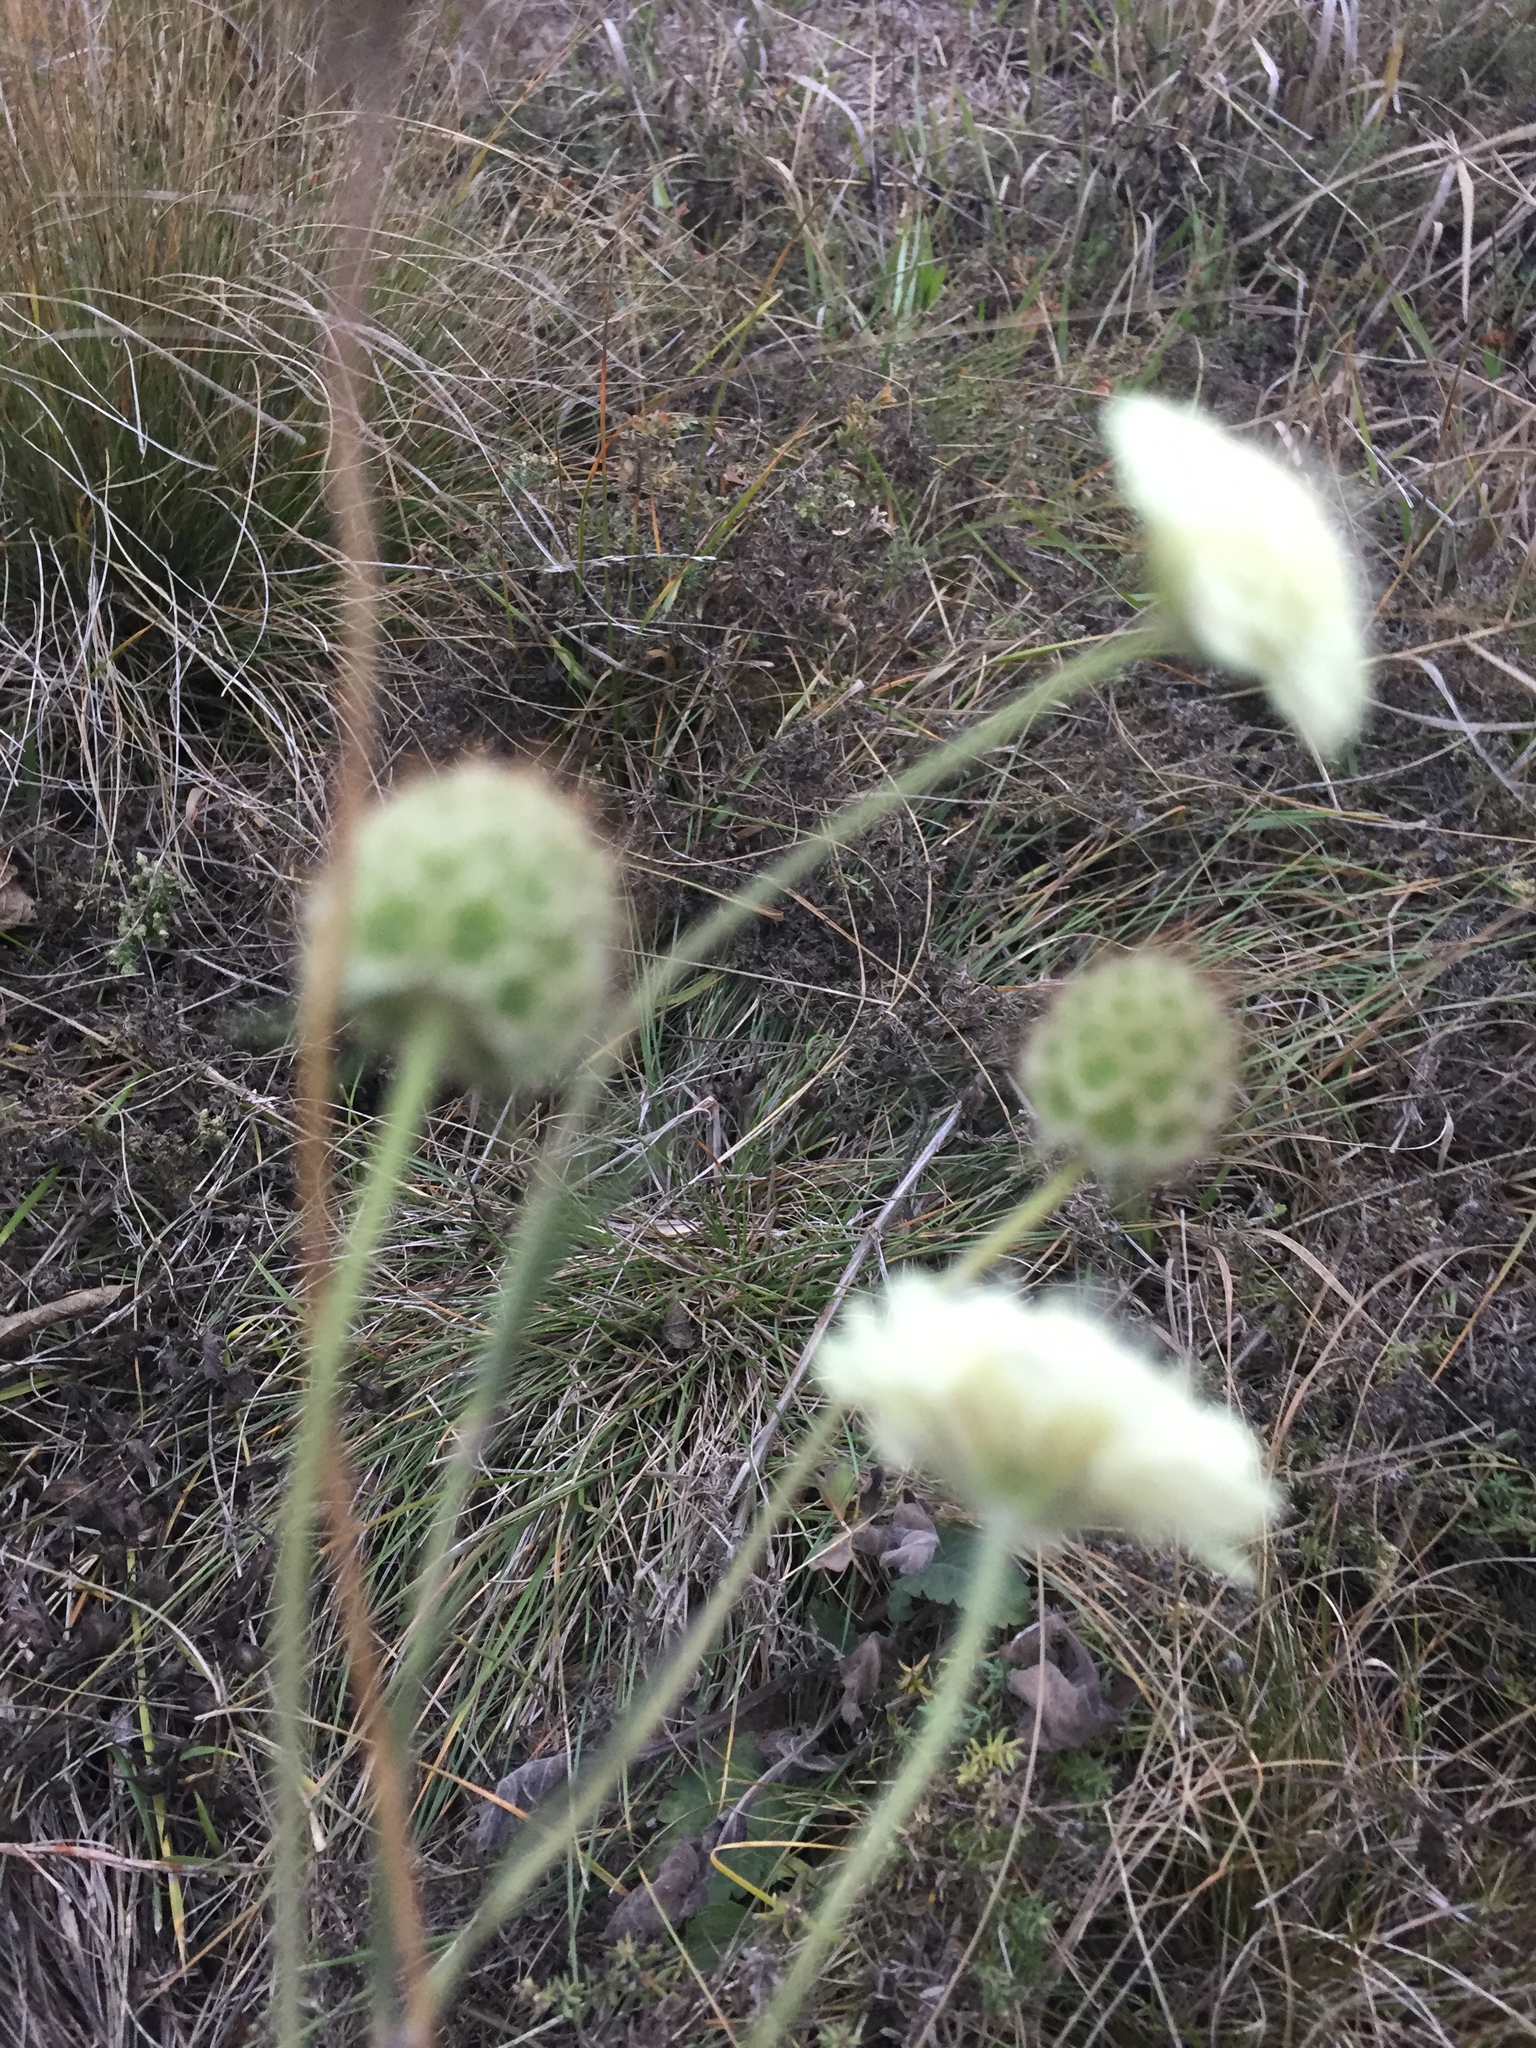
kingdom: Plantae
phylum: Tracheophyta
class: Magnoliopsida
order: Dipsacales
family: Caprifoliaceae
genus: Scabiosa
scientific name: Scabiosa ochroleuca
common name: Cream pincushions
